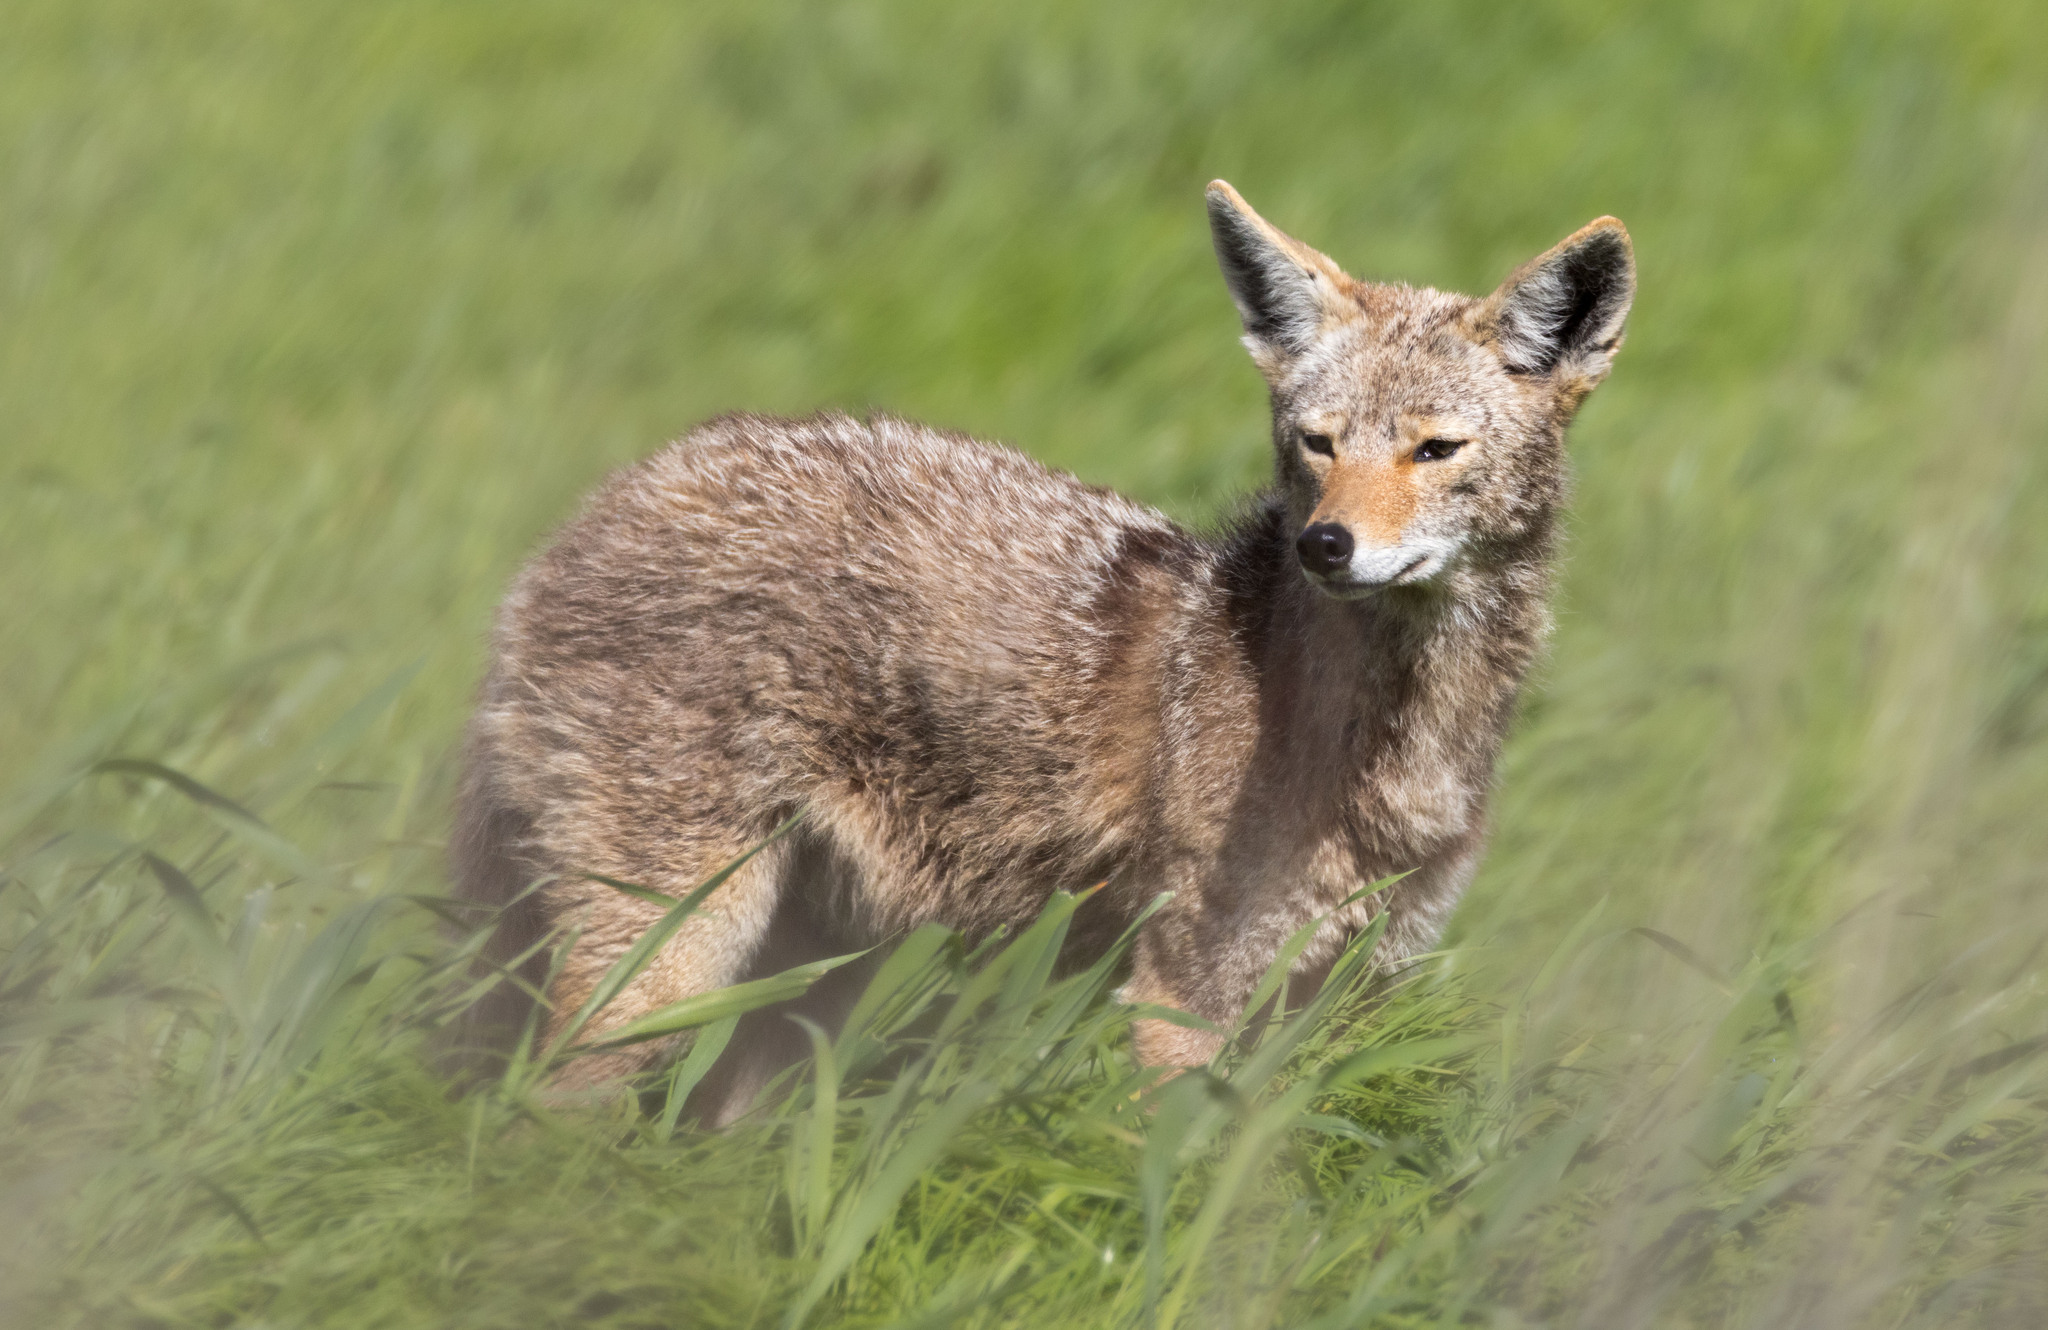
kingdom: Animalia
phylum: Chordata
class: Mammalia
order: Carnivora
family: Canidae
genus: Canis
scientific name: Canis latrans
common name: Coyote
